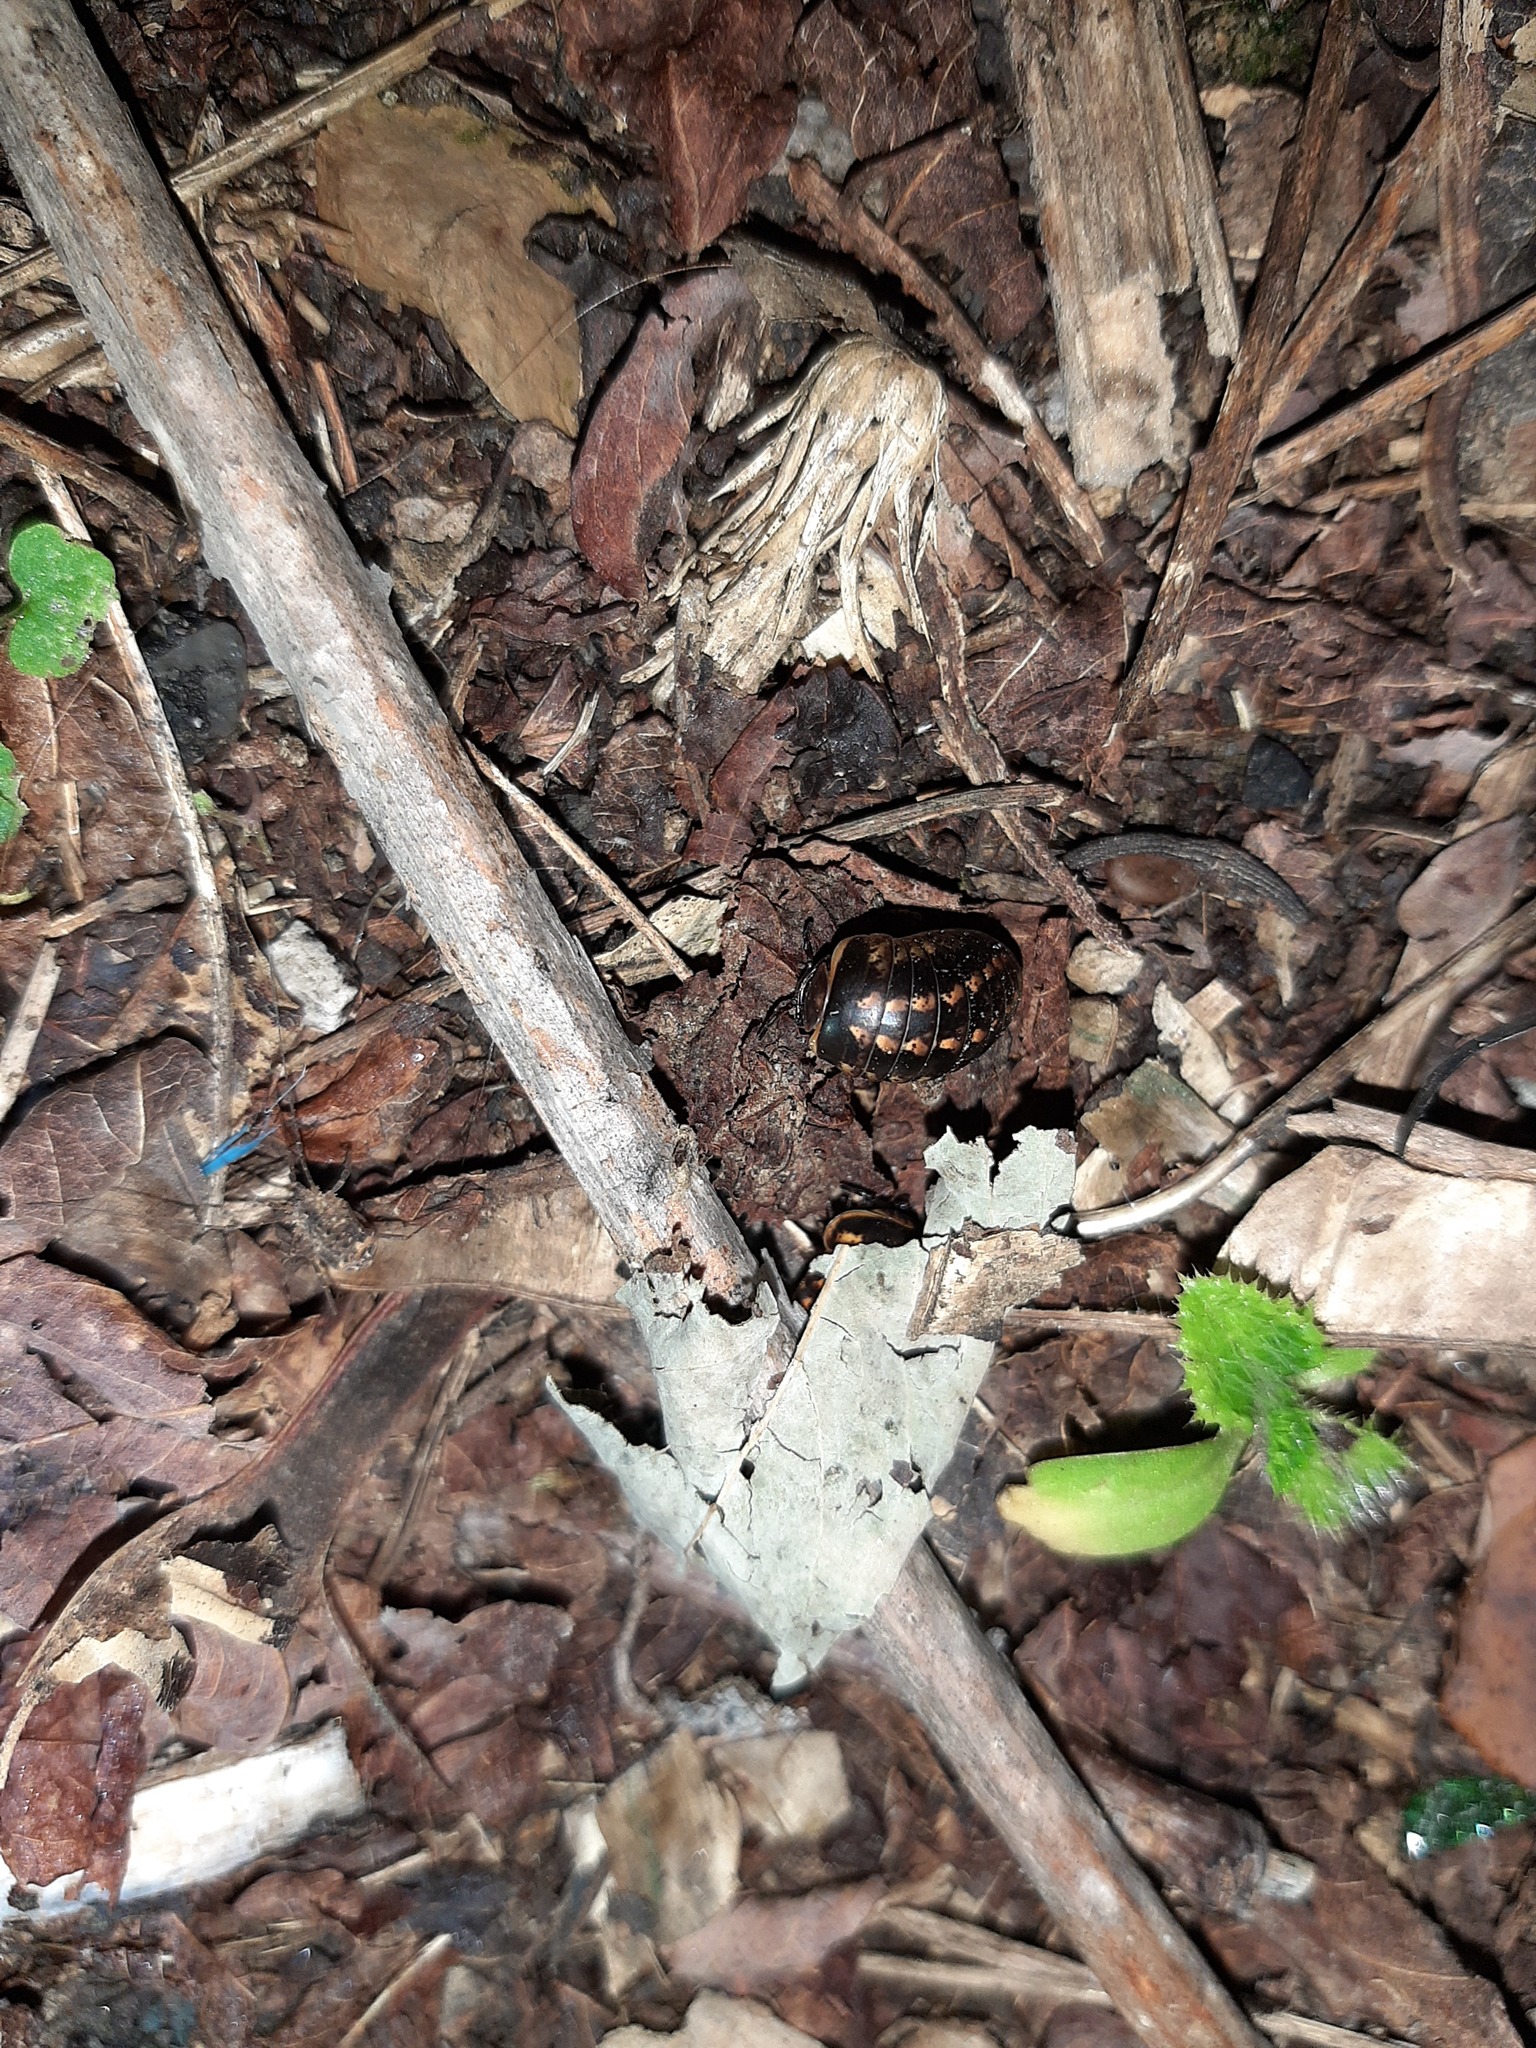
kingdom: Animalia
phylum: Arthropoda
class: Diplopoda
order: Glomerida
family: Glomeridae
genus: Glomeris
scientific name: Glomeris klugii
